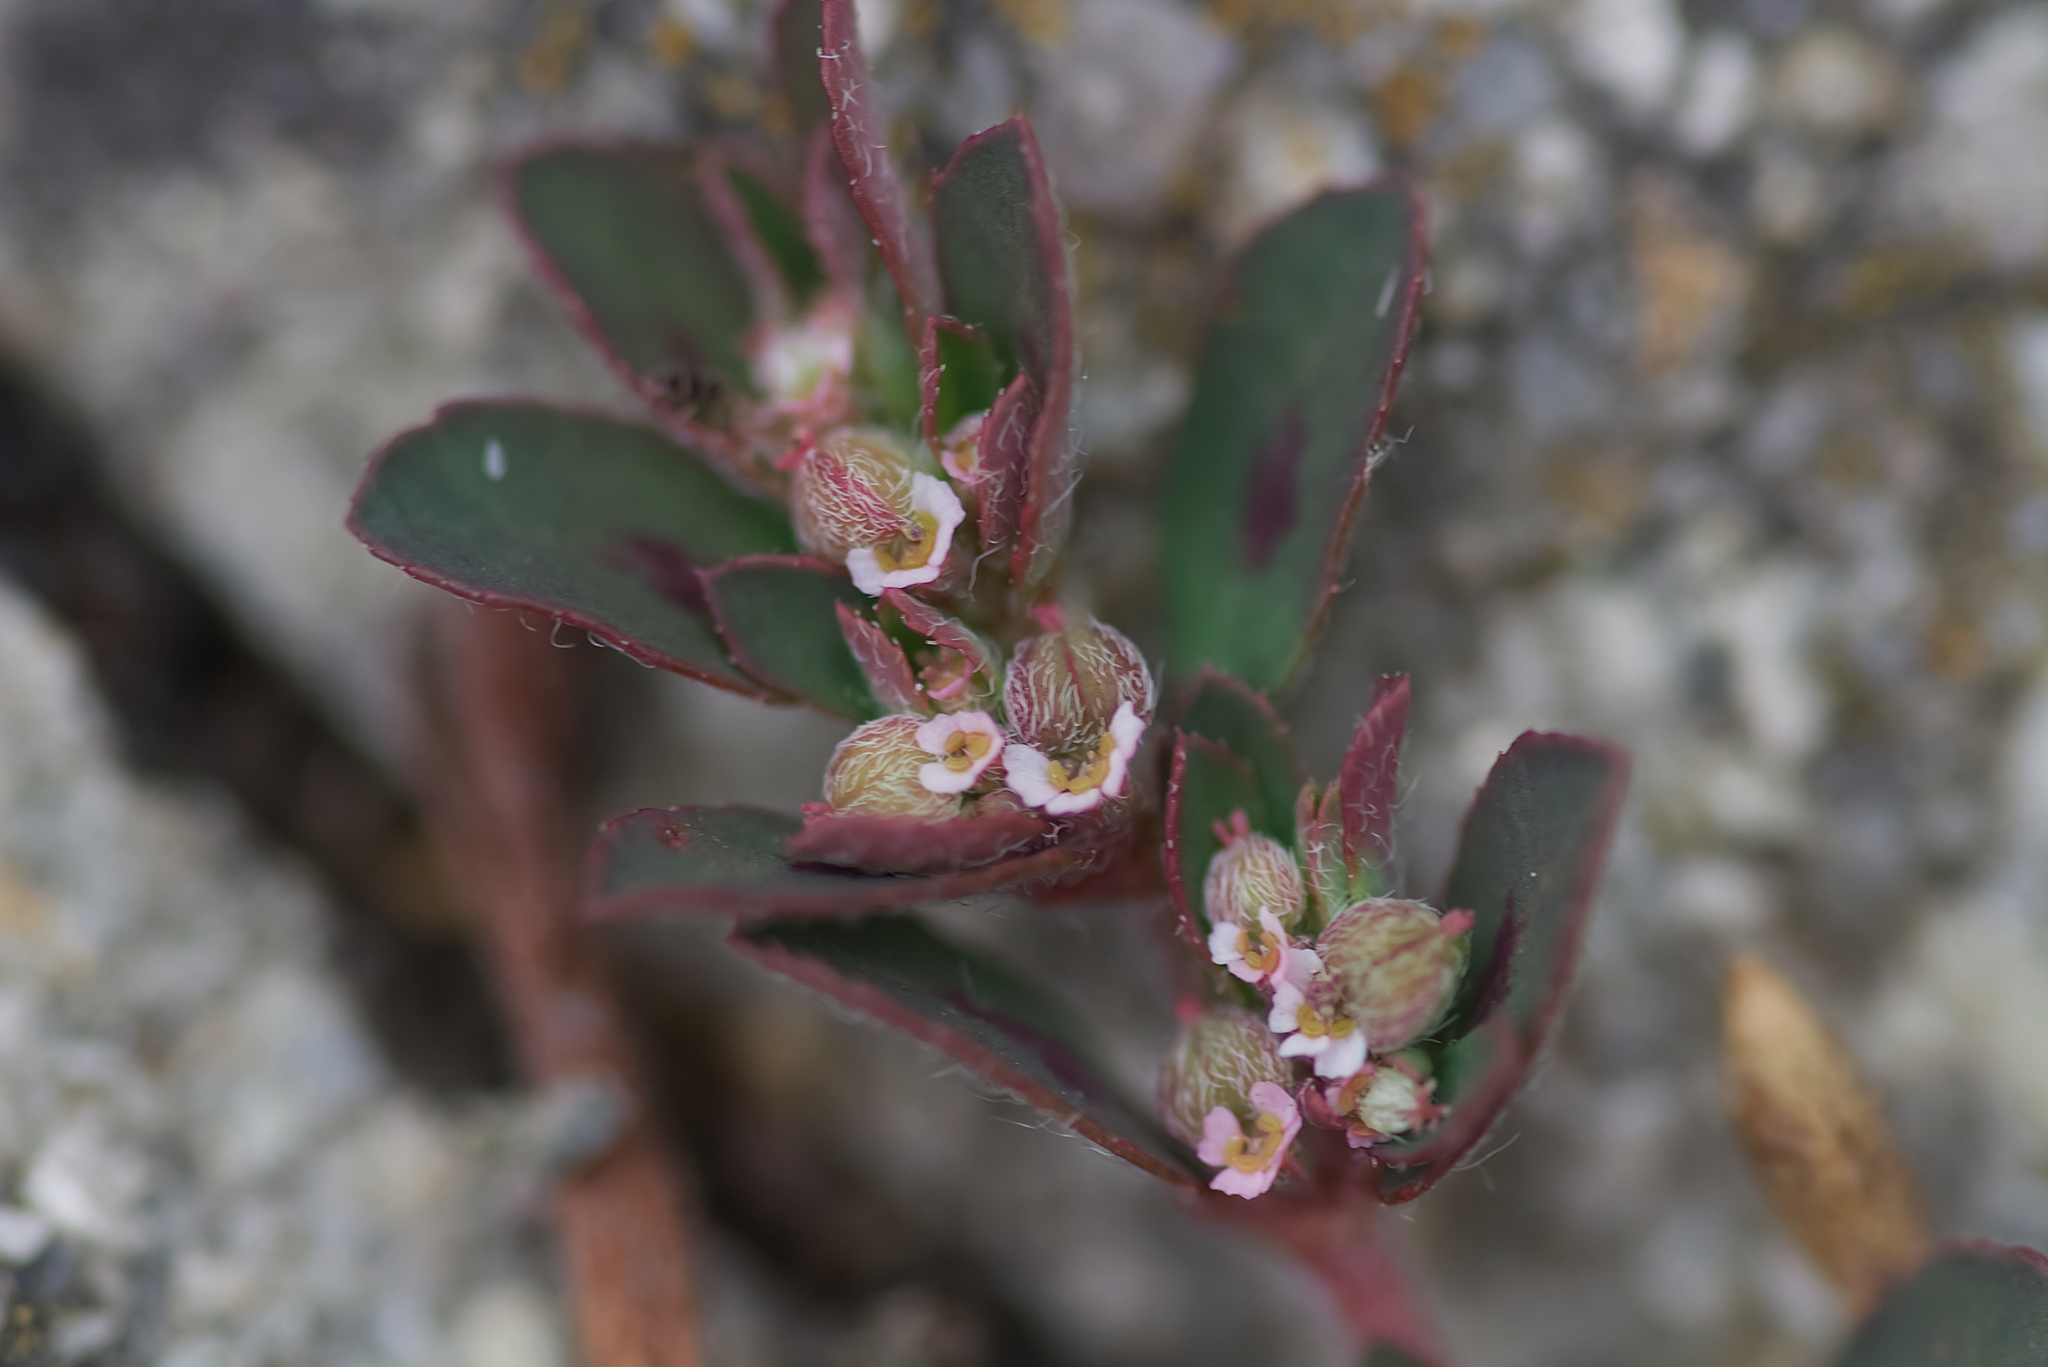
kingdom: Plantae
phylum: Tracheophyta
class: Magnoliopsida
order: Malpighiales
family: Euphorbiaceae
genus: Euphorbia
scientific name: Euphorbia maculata
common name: Spotted spurge
